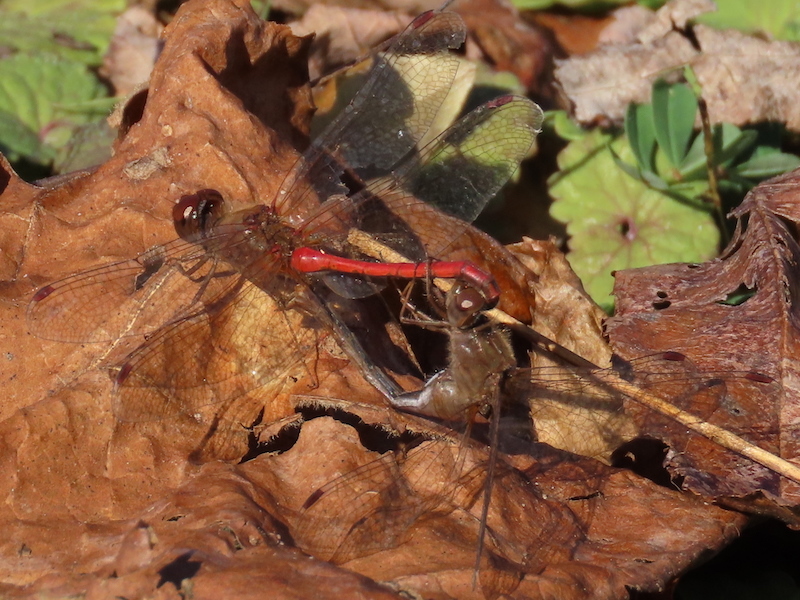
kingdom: Animalia
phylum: Arthropoda
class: Insecta
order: Odonata
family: Libellulidae
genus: Sympetrum
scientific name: Sympetrum vicinum
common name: Autumn meadowhawk
